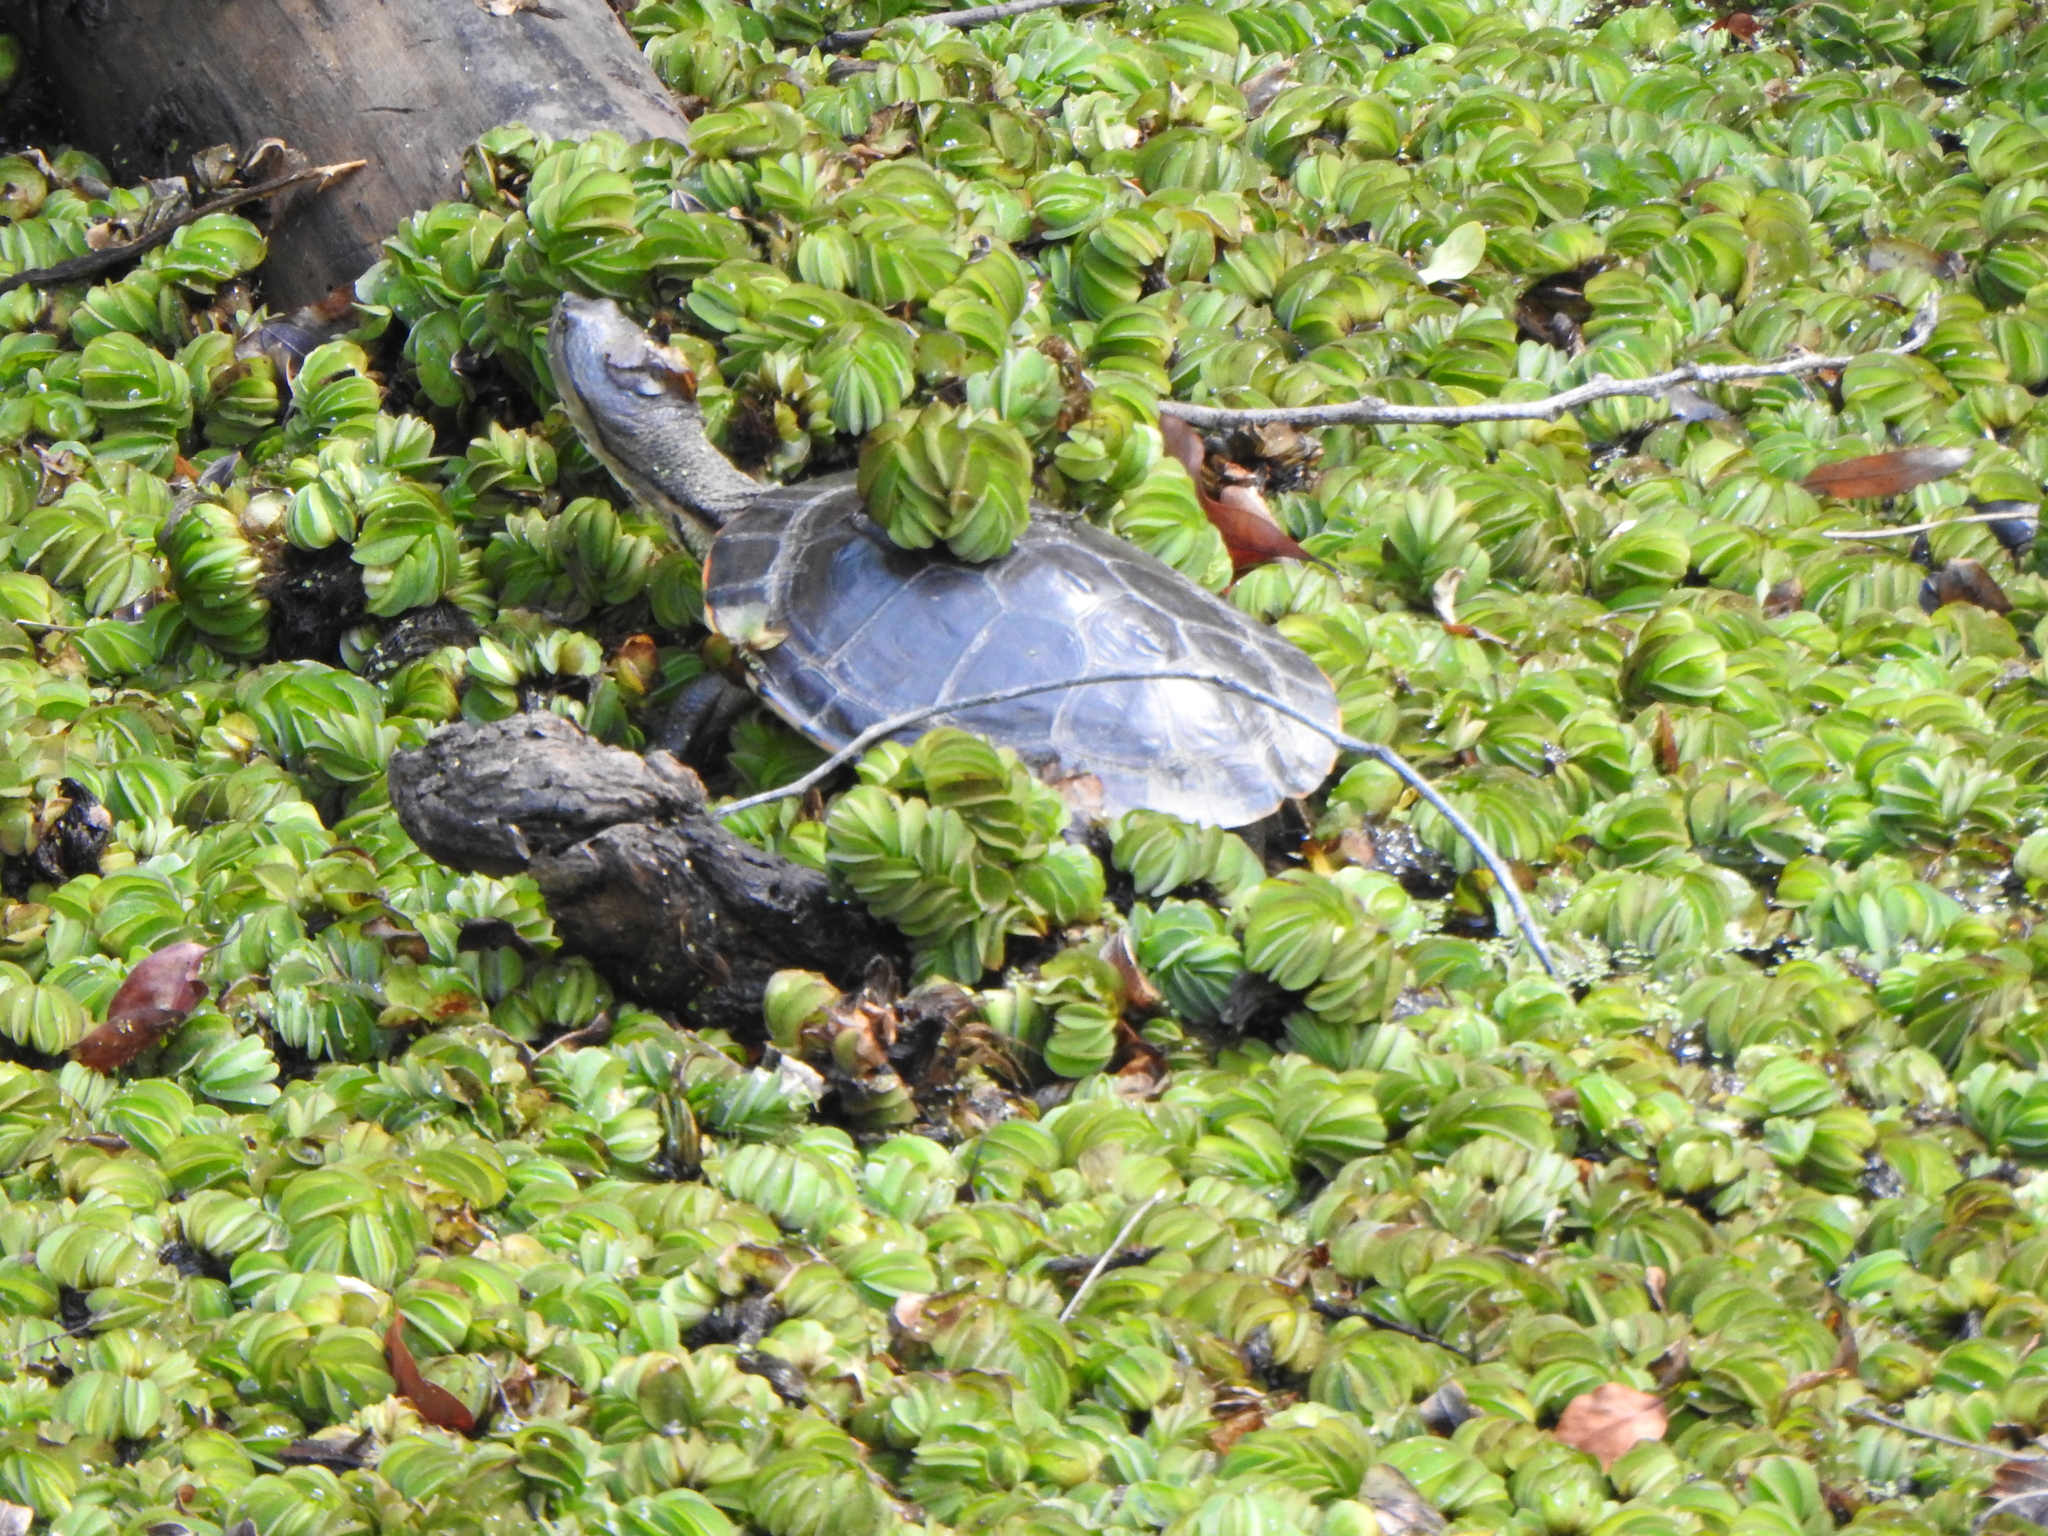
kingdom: Animalia
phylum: Chordata
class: Testudines
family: Chelidae
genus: Phrynops
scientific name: Phrynops hilarii
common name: Side-necked turtle of saint hillaire
